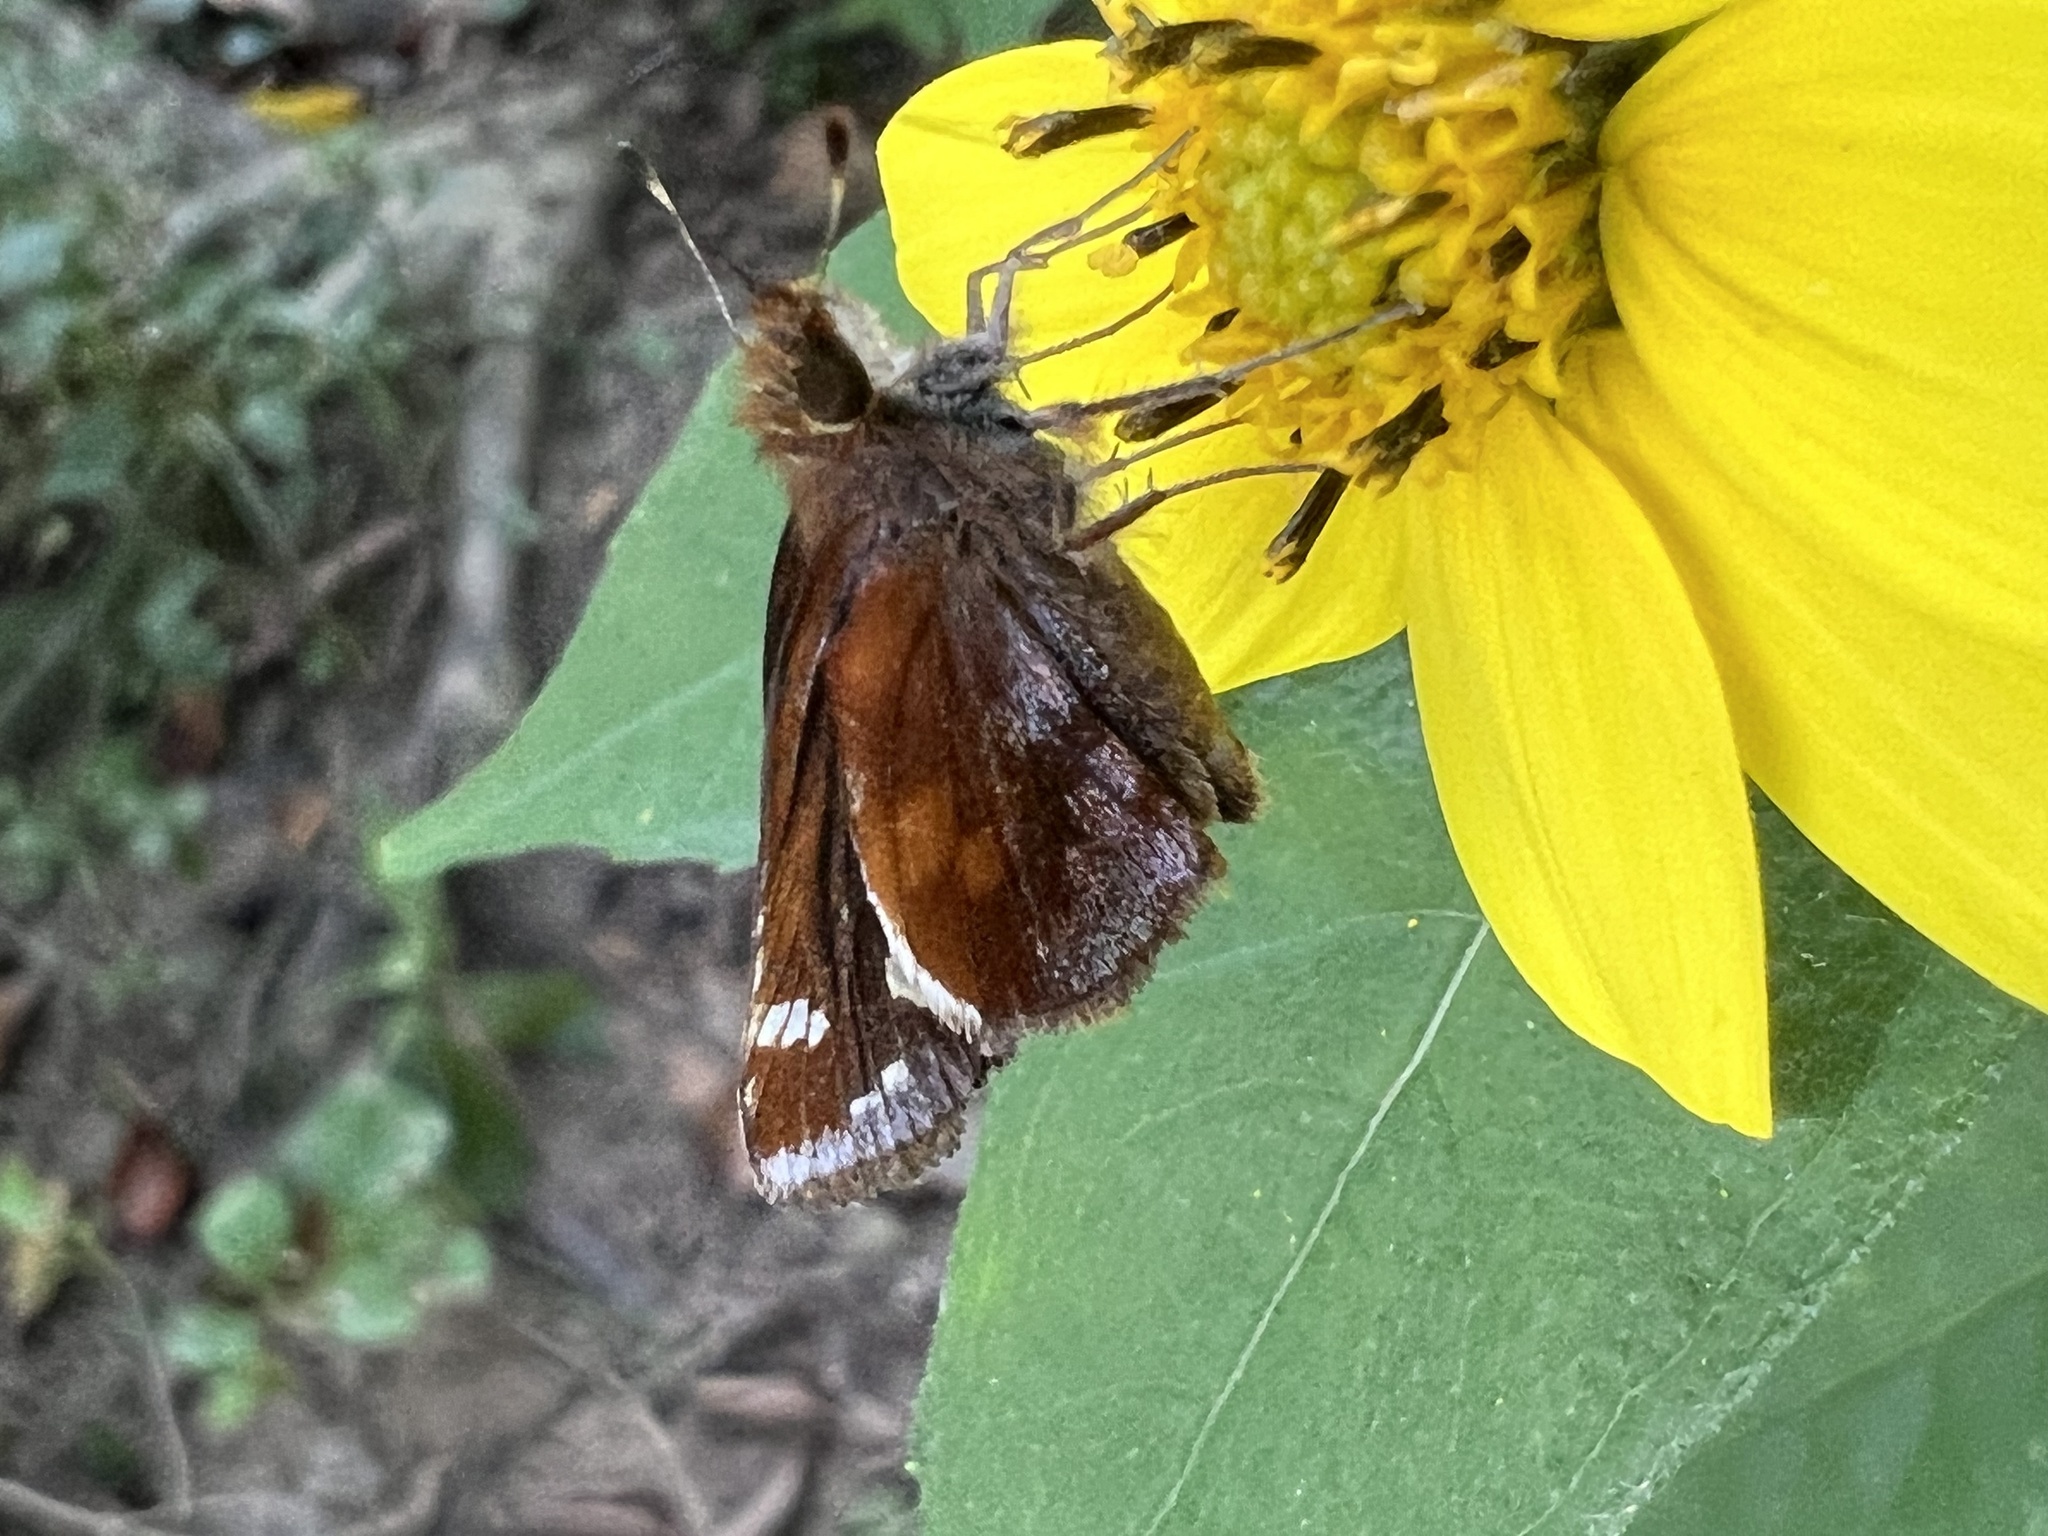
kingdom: Animalia
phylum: Arthropoda
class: Insecta
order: Lepidoptera
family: Hesperiidae
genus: Lon
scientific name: Lon zabulon
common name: Zabulon skipper
